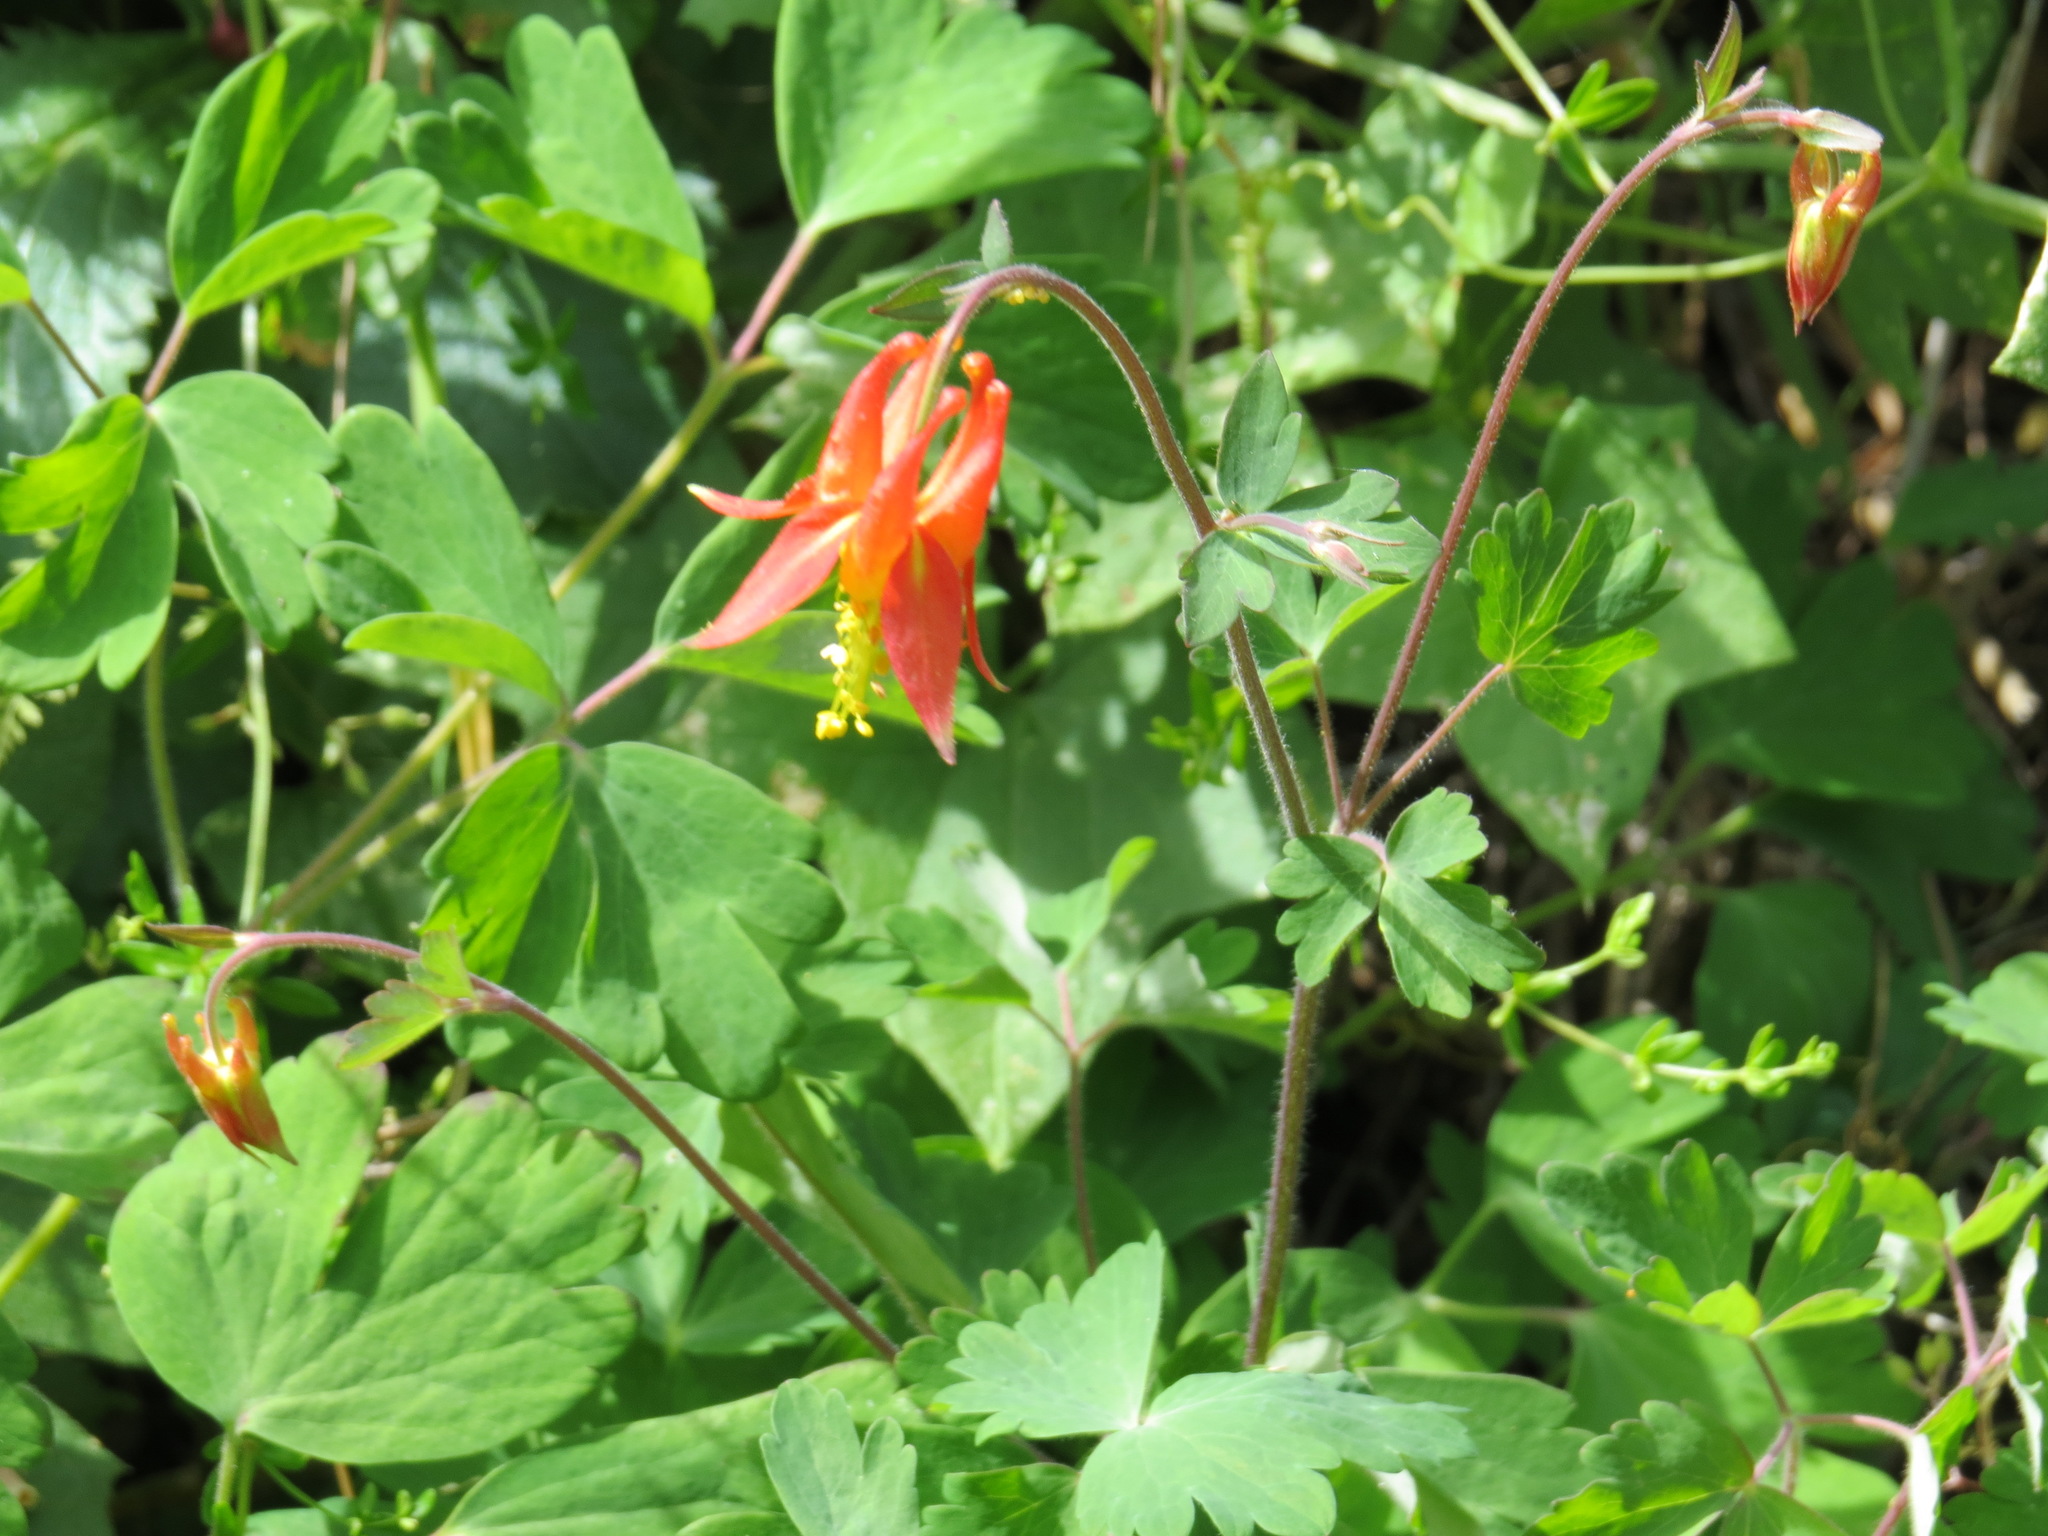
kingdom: Plantae
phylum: Tracheophyta
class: Magnoliopsida
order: Ranunculales
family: Ranunculaceae
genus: Aquilegia
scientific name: Aquilegia formosa
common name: Sitka columbine
